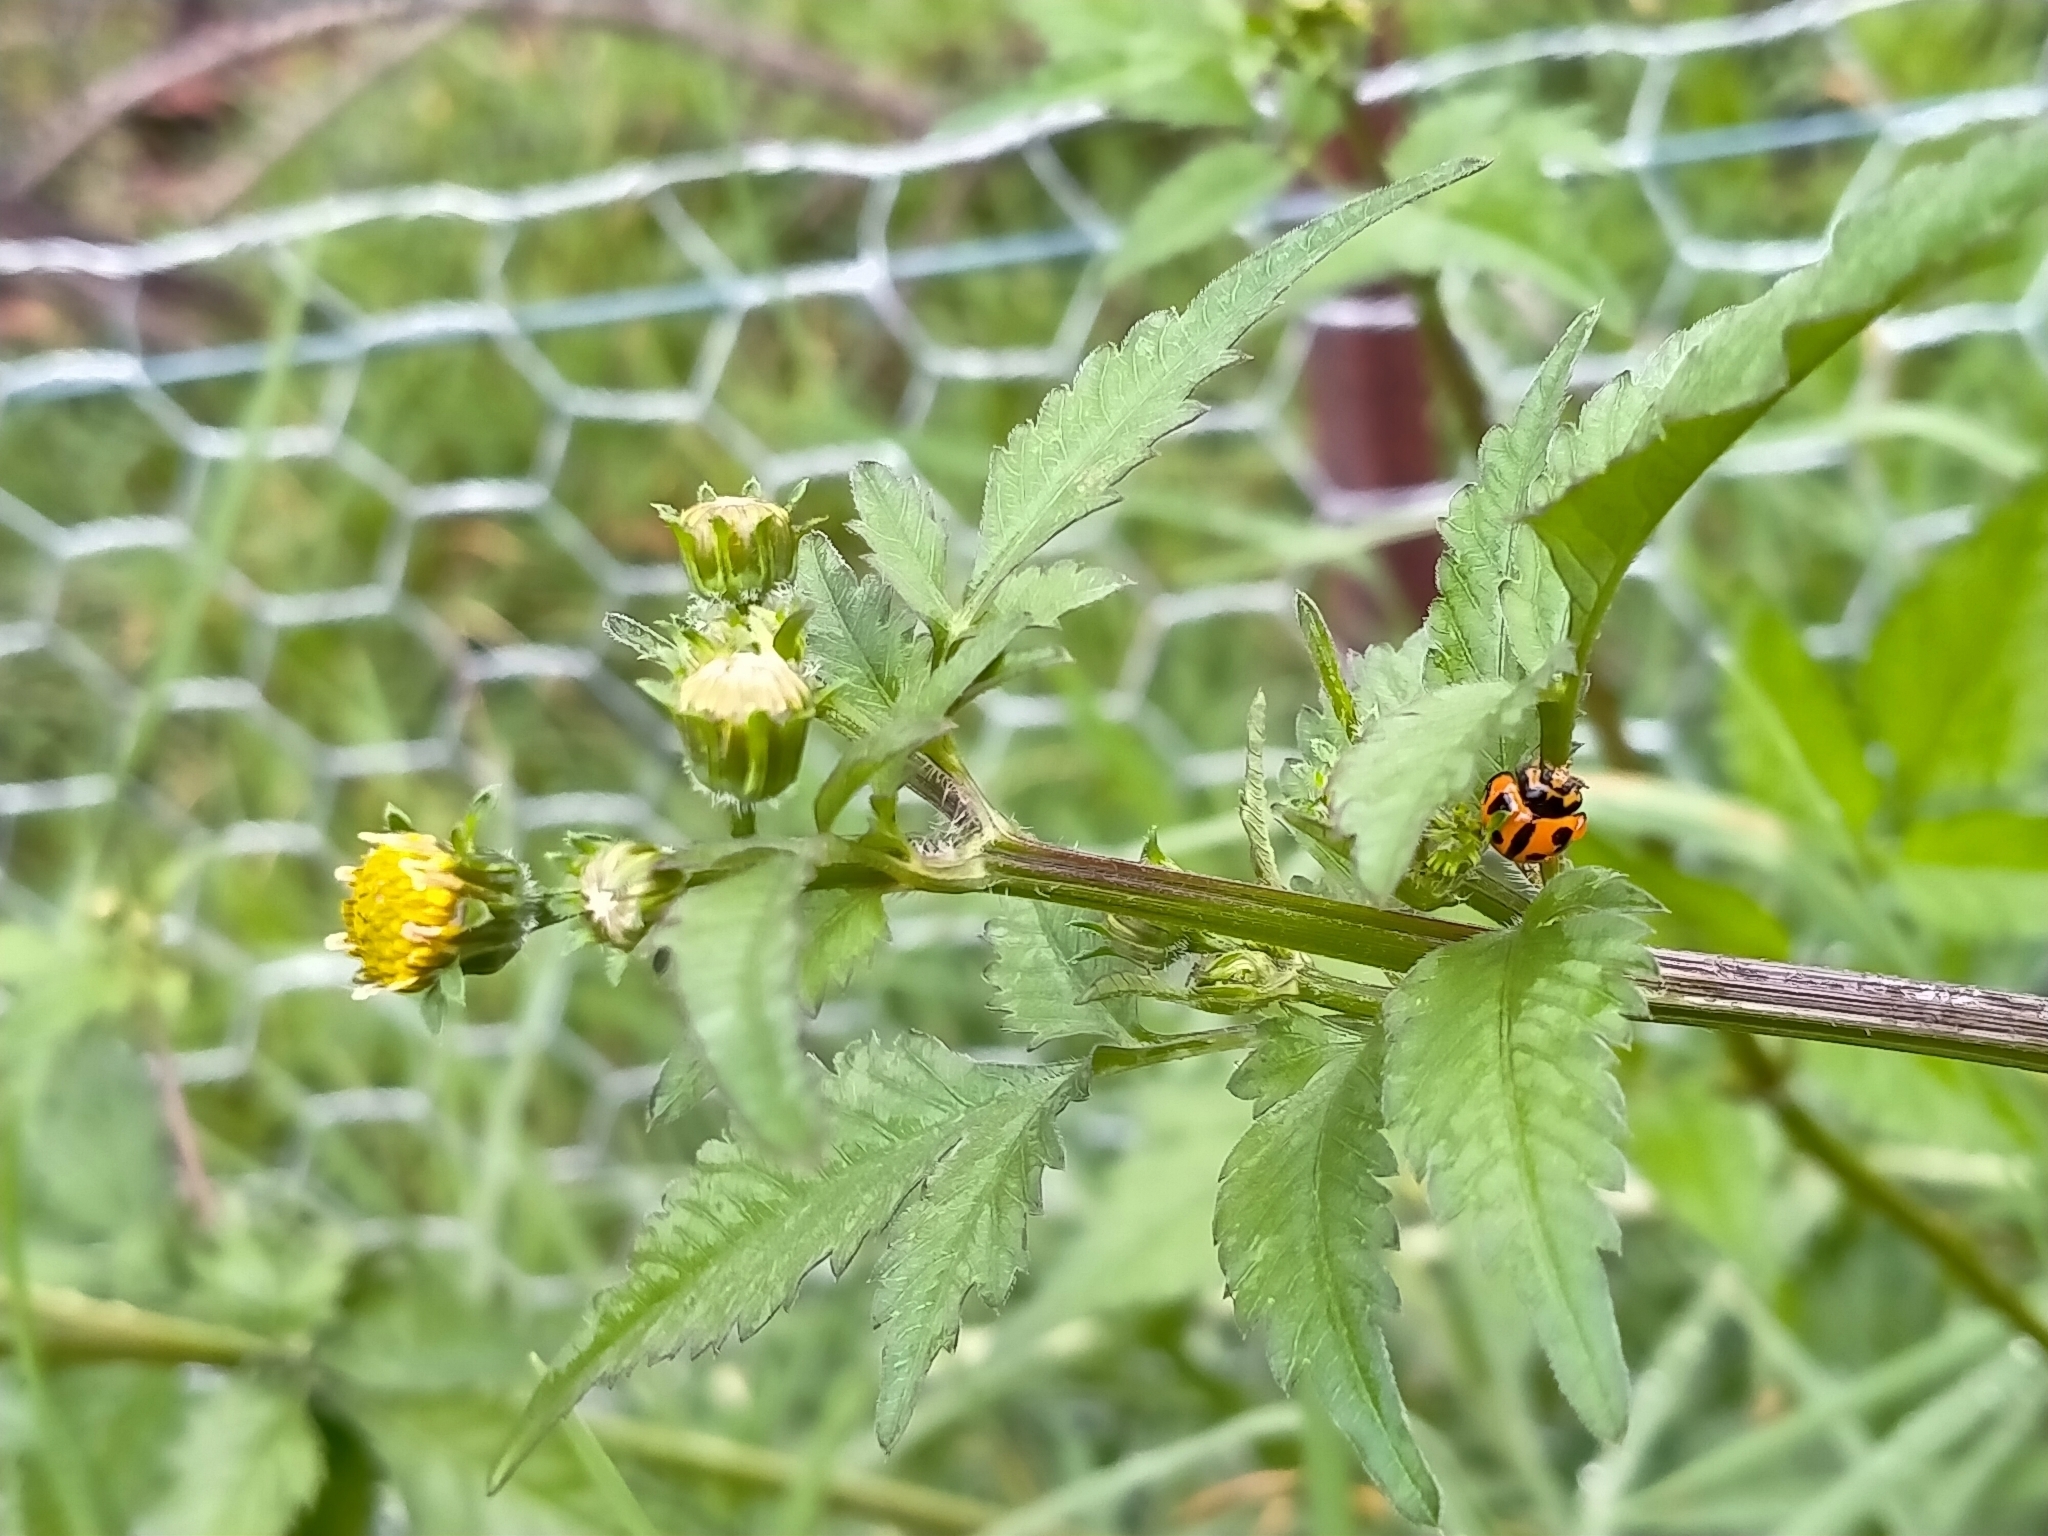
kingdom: Animalia
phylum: Arthropoda
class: Insecta
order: Coleoptera
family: Coccinellidae
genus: Coelophora
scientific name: Coelophora inaequalis
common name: Common australian lady beetle
